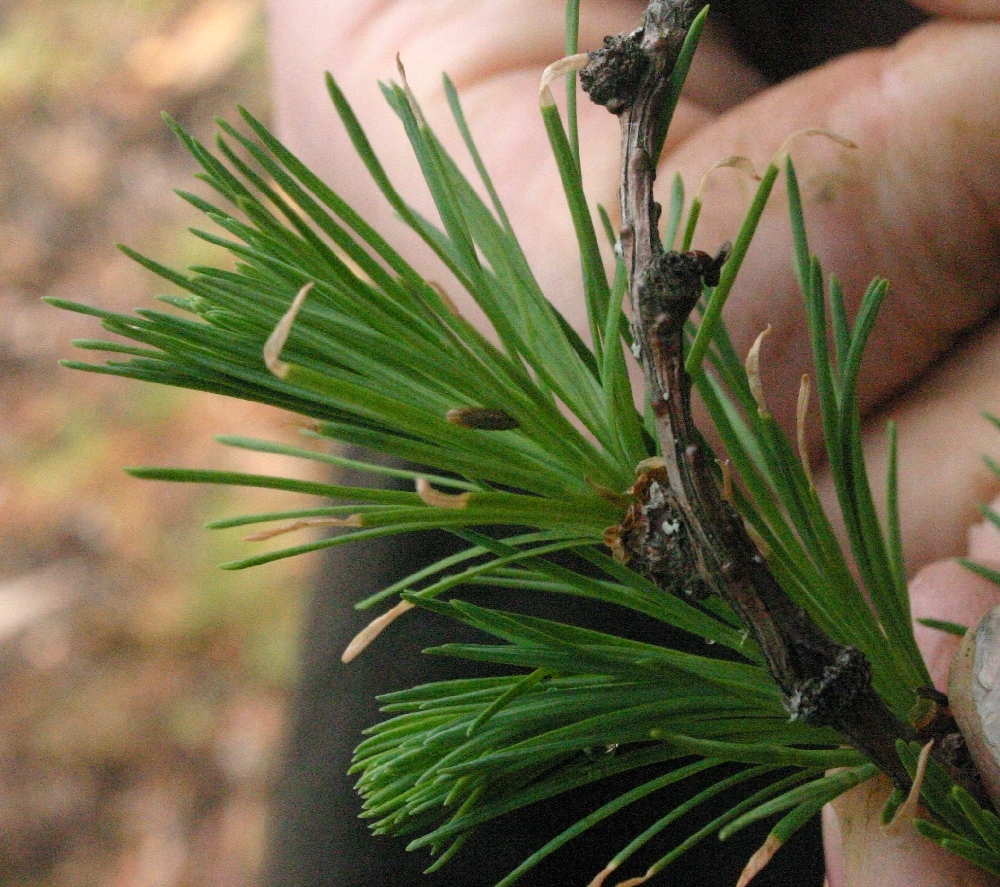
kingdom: Animalia
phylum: Arthropoda
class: Insecta
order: Lepidoptera
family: Coleophoridae
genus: Coleophora
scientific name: Coleophora laricella
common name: Larch case-bearer
